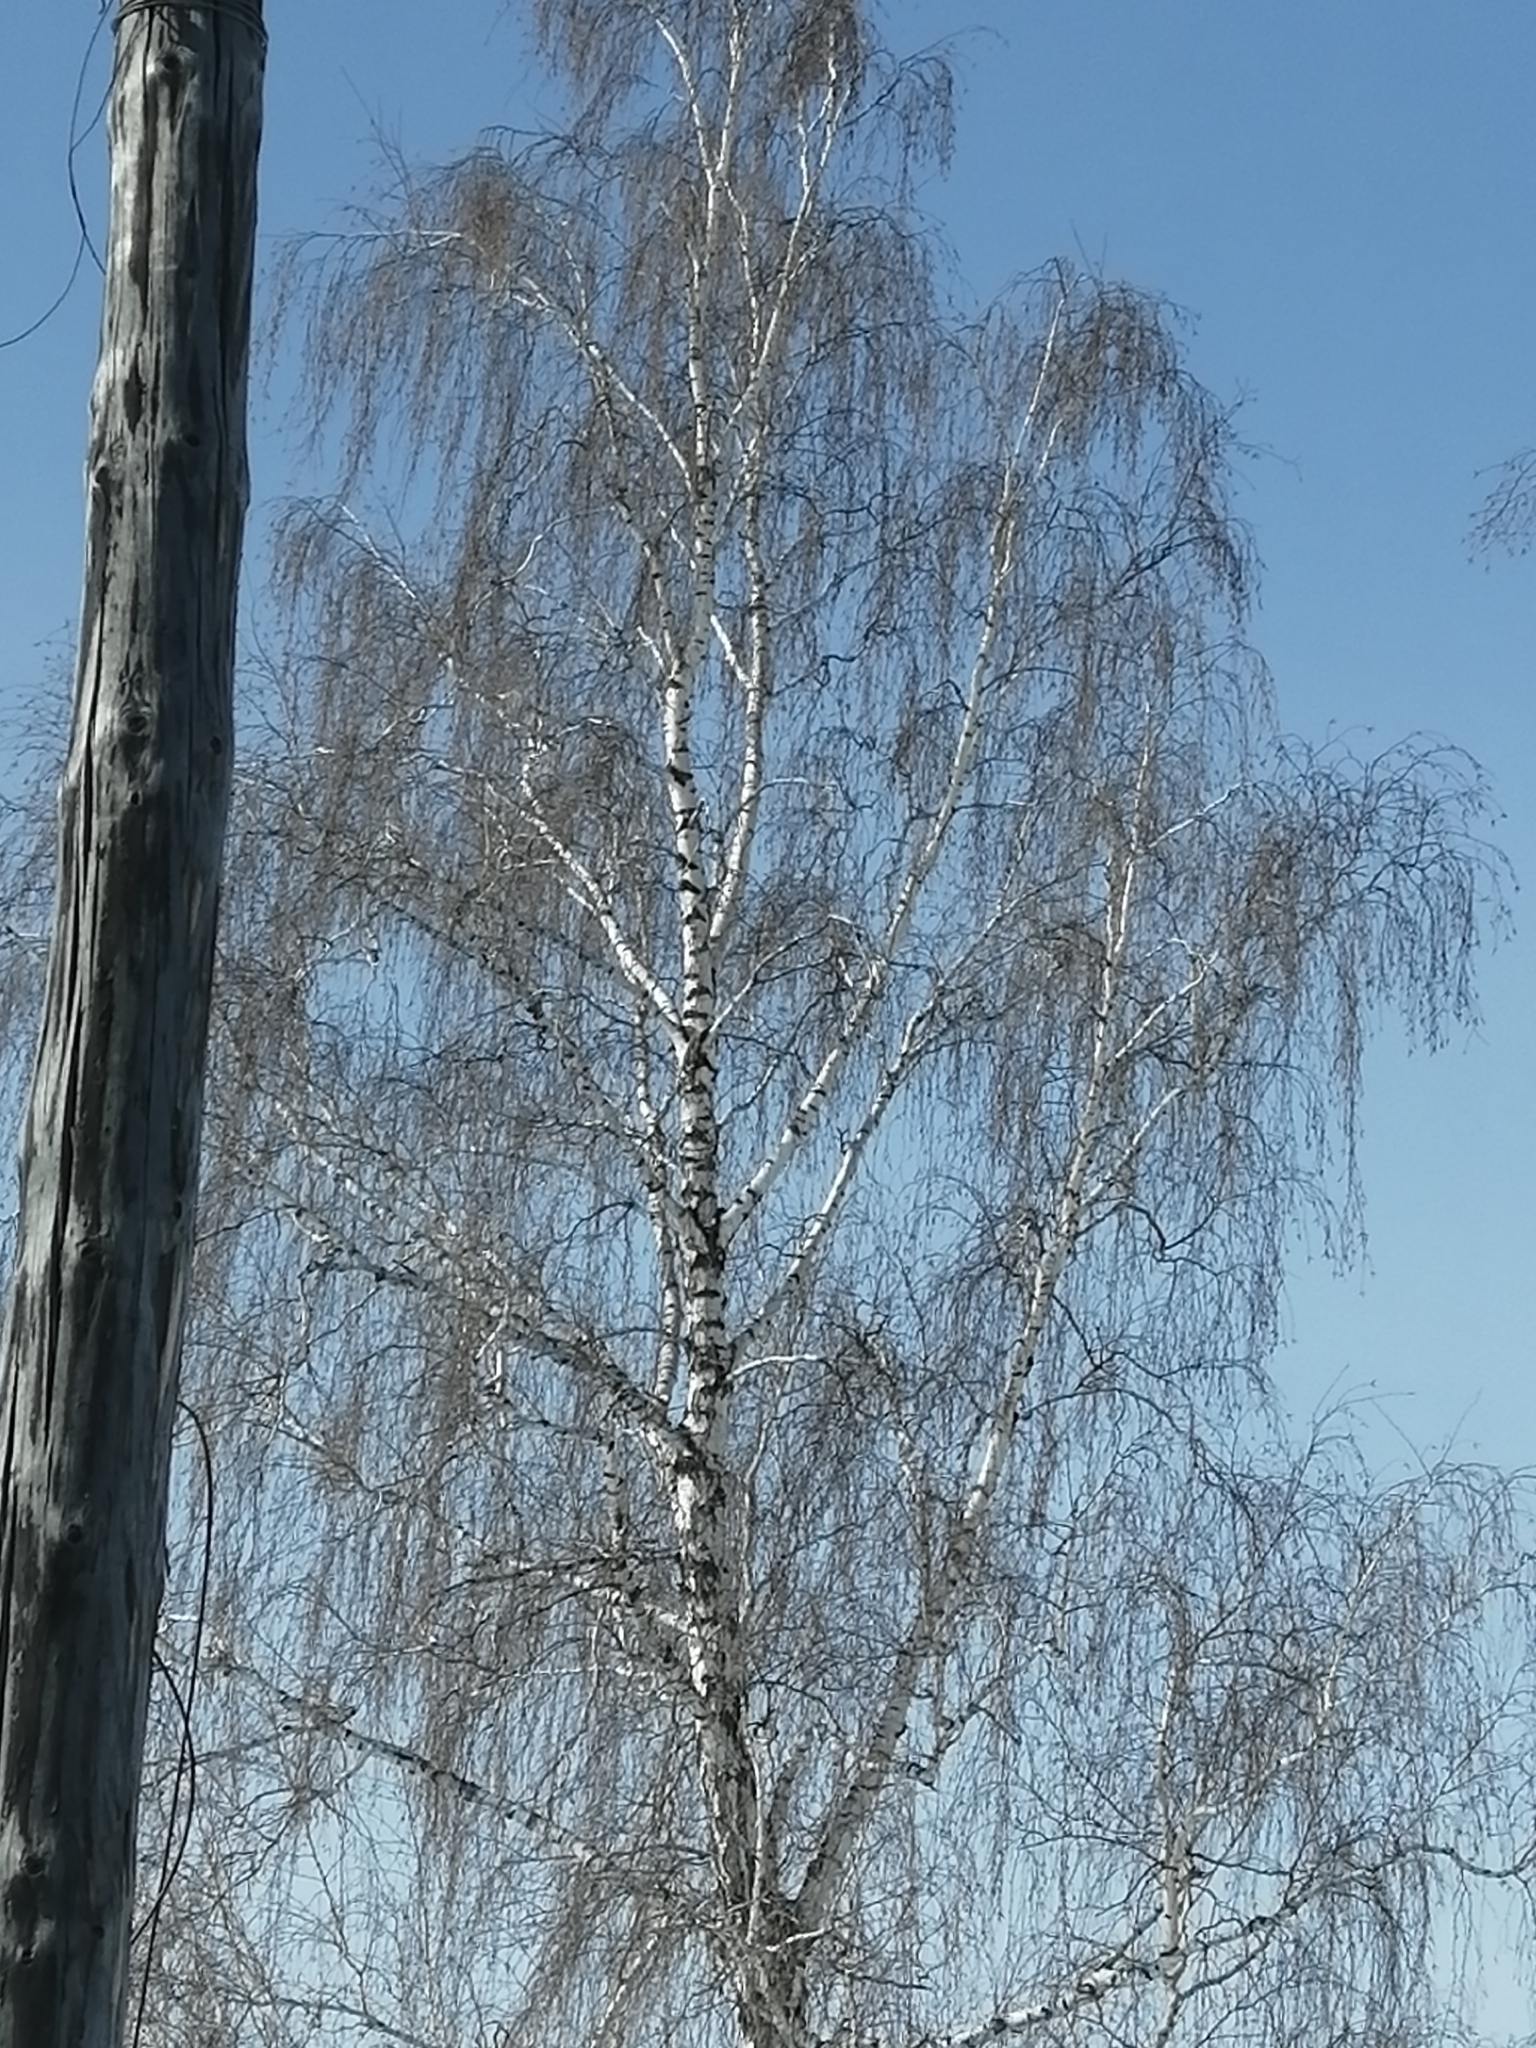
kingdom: Plantae
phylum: Tracheophyta
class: Magnoliopsida
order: Fagales
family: Betulaceae
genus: Betula
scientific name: Betula pendula
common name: Silver birch
